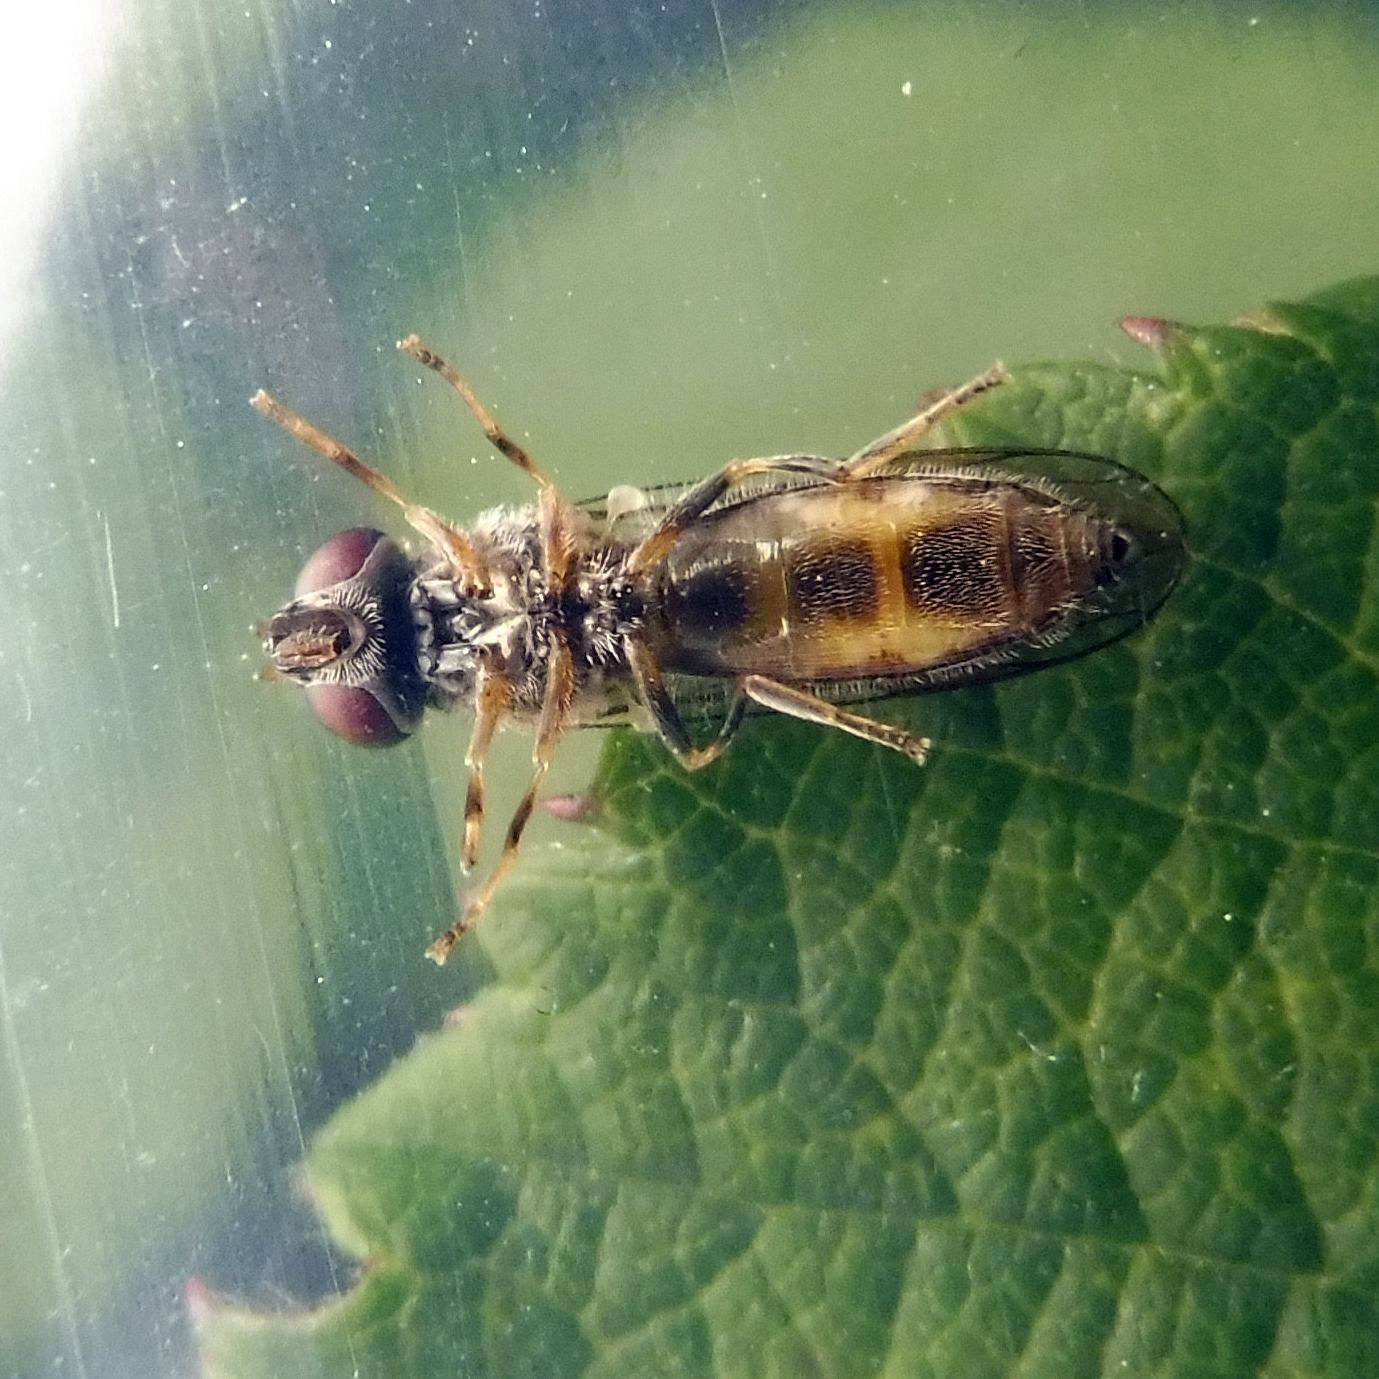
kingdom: Animalia
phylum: Arthropoda
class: Insecta
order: Diptera
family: Syrphidae
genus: Platycheirus
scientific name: Platycheirus
